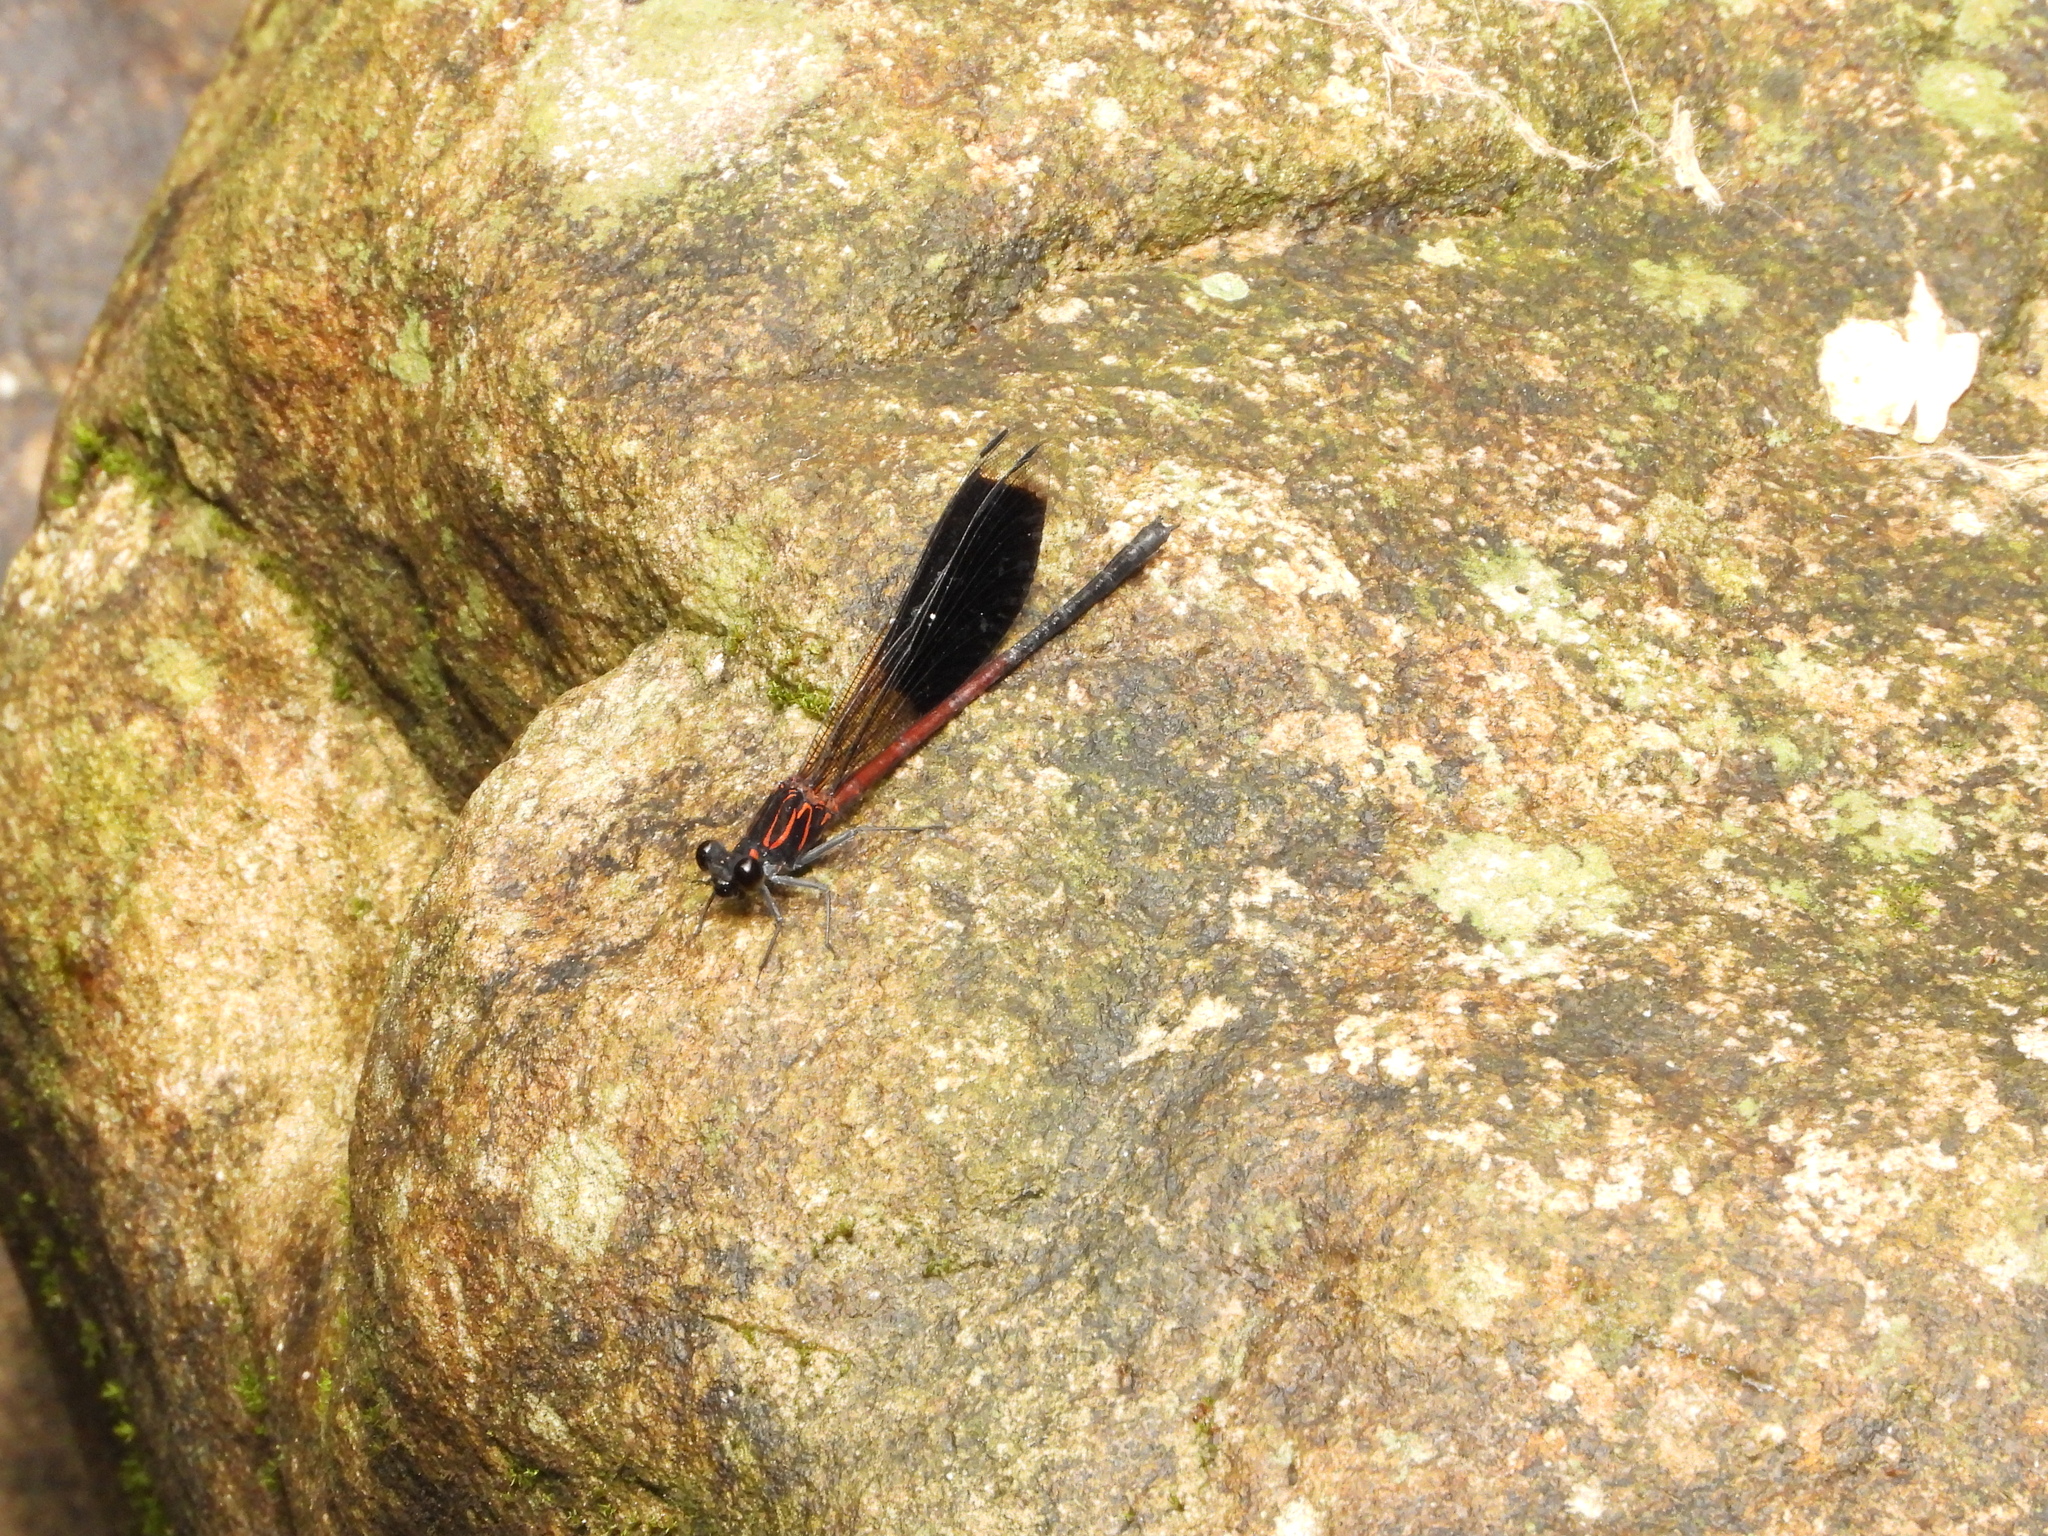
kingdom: Animalia
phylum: Arthropoda
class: Insecta
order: Odonata
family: Euphaeidae
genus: Euphaea
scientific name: Euphaea formosa
